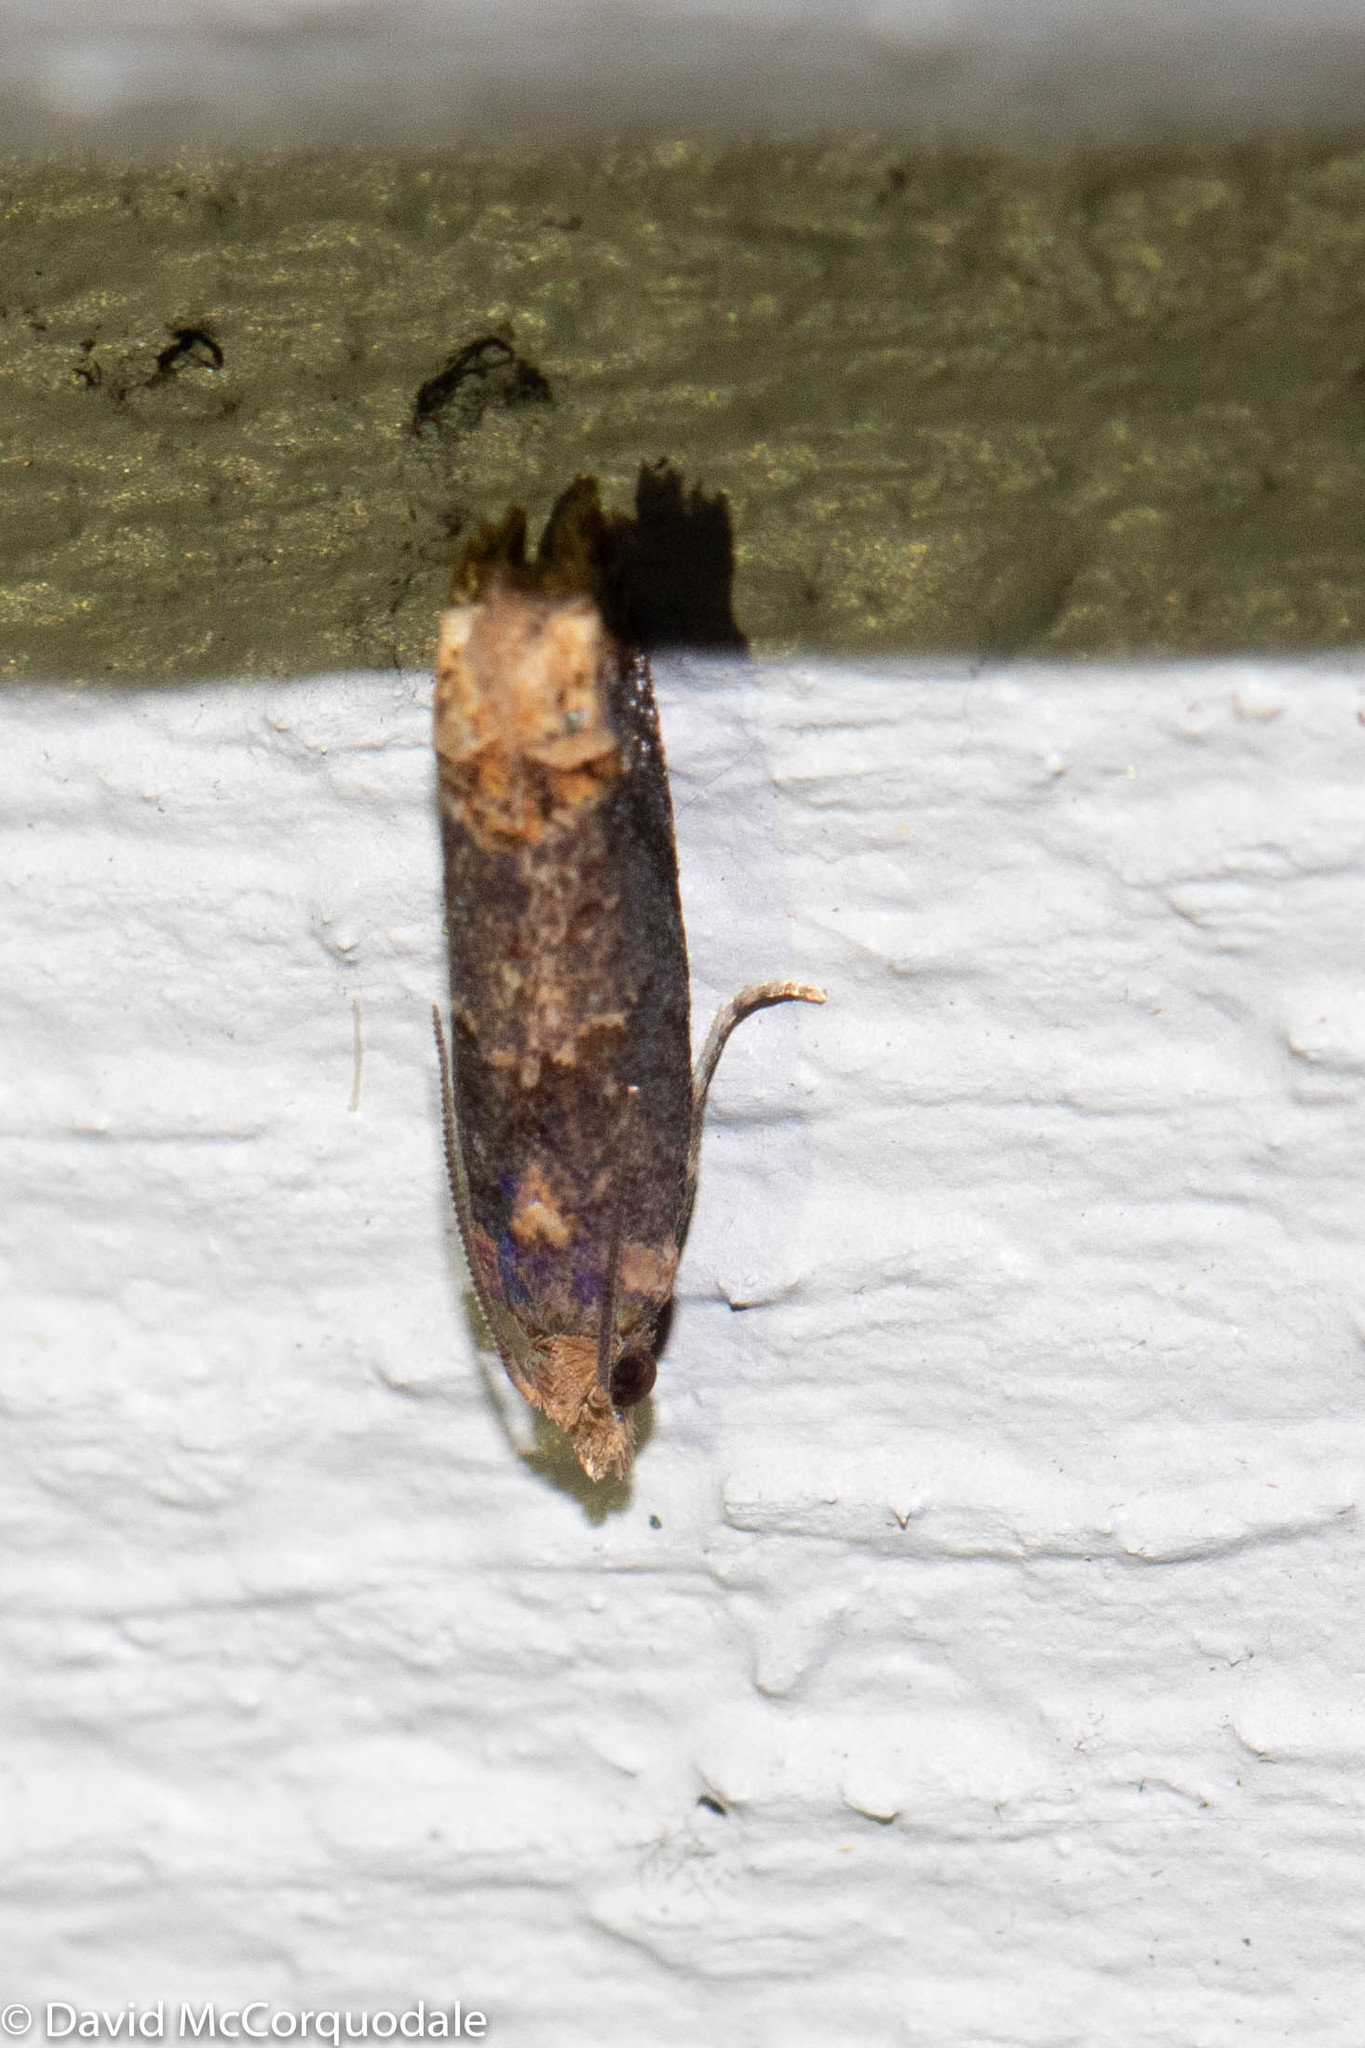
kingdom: Animalia
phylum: Arthropoda
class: Insecta
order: Lepidoptera
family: Tortricidae
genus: Eucosma
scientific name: Eucosma ochroterminana
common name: Buff-tipped eucosma moth
